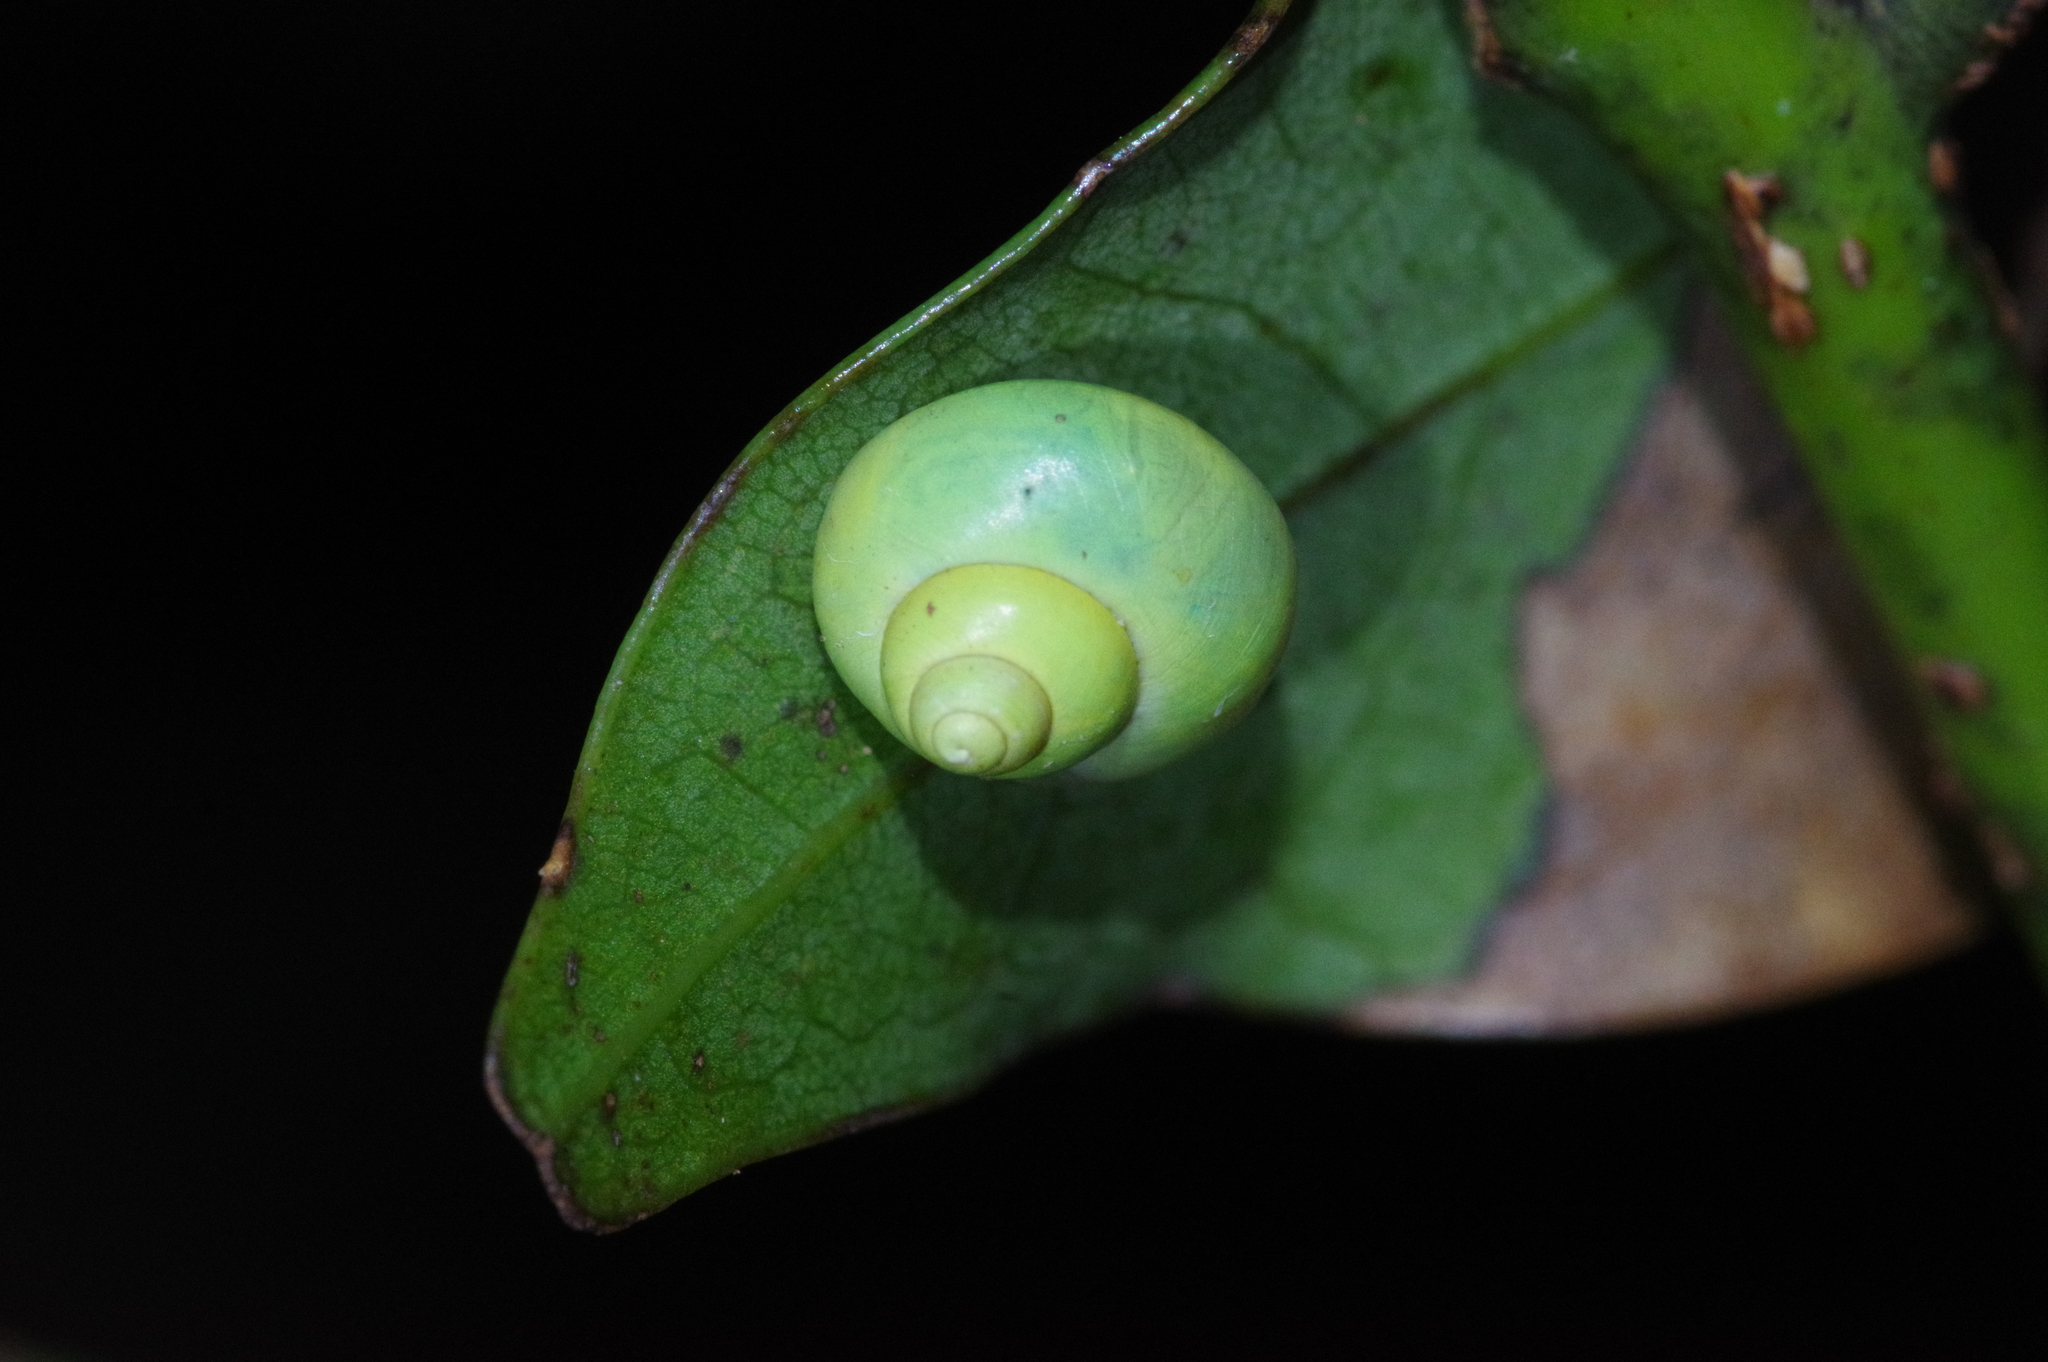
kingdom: Animalia
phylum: Mollusca
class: Gastropoda
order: Architaenioglossa
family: Cyclophoridae
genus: Leptopoma
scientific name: Leptopoma nitidum
